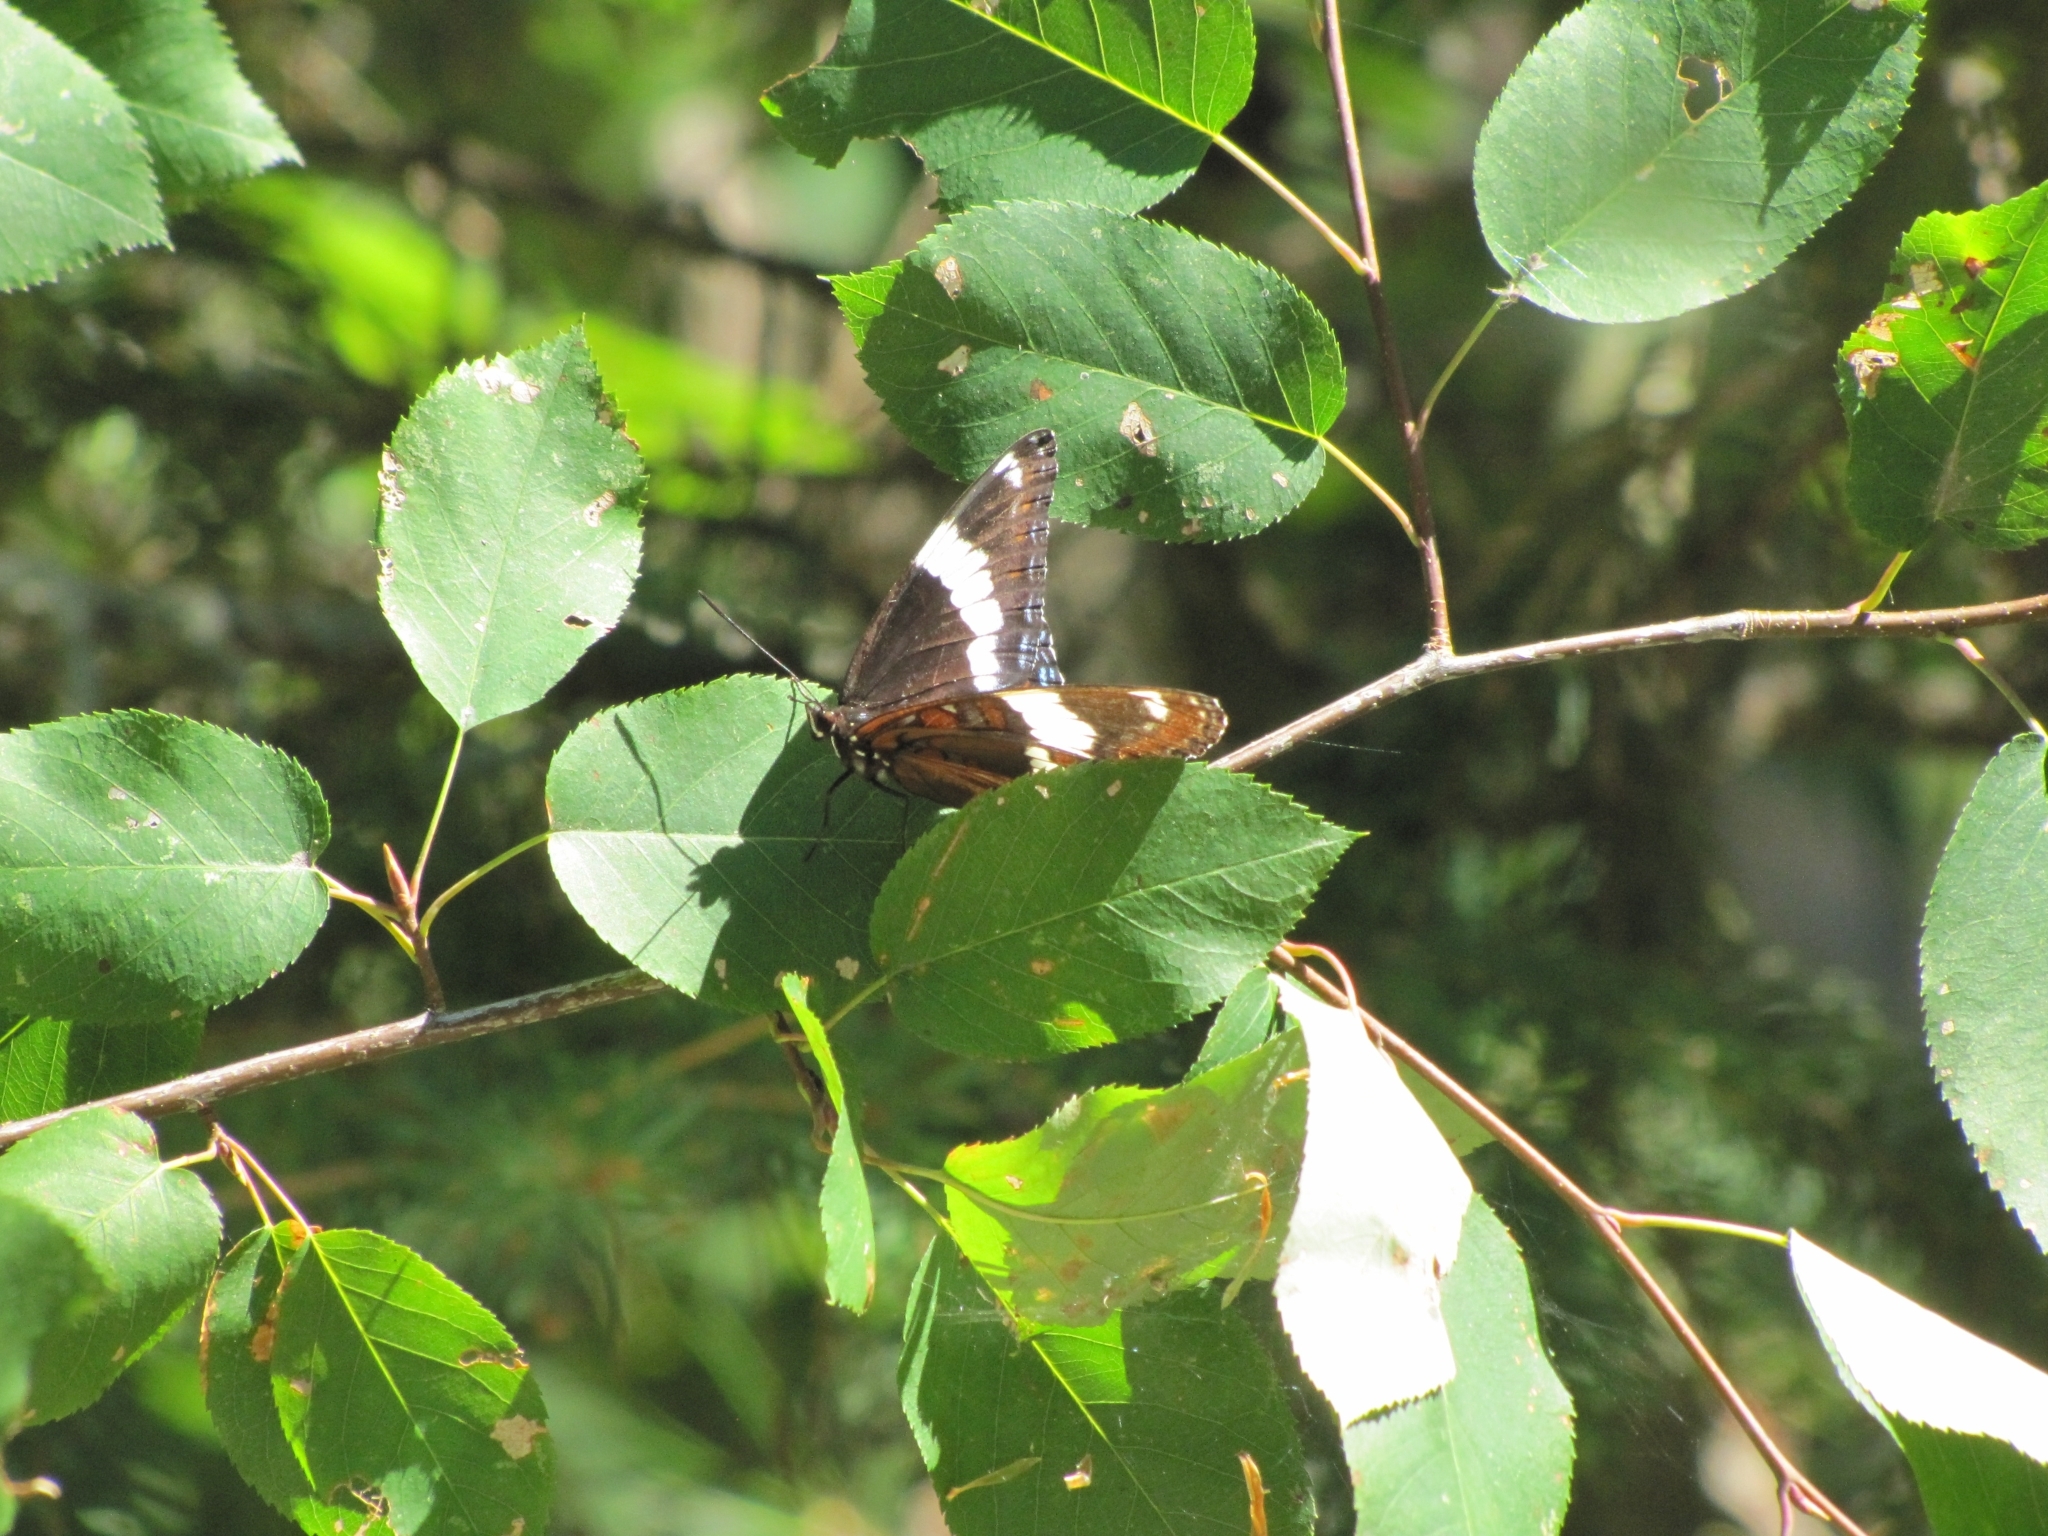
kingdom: Animalia
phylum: Arthropoda
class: Insecta
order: Lepidoptera
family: Nymphalidae
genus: Limenitis
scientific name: Limenitis arthemis
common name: Red-spotted admiral
